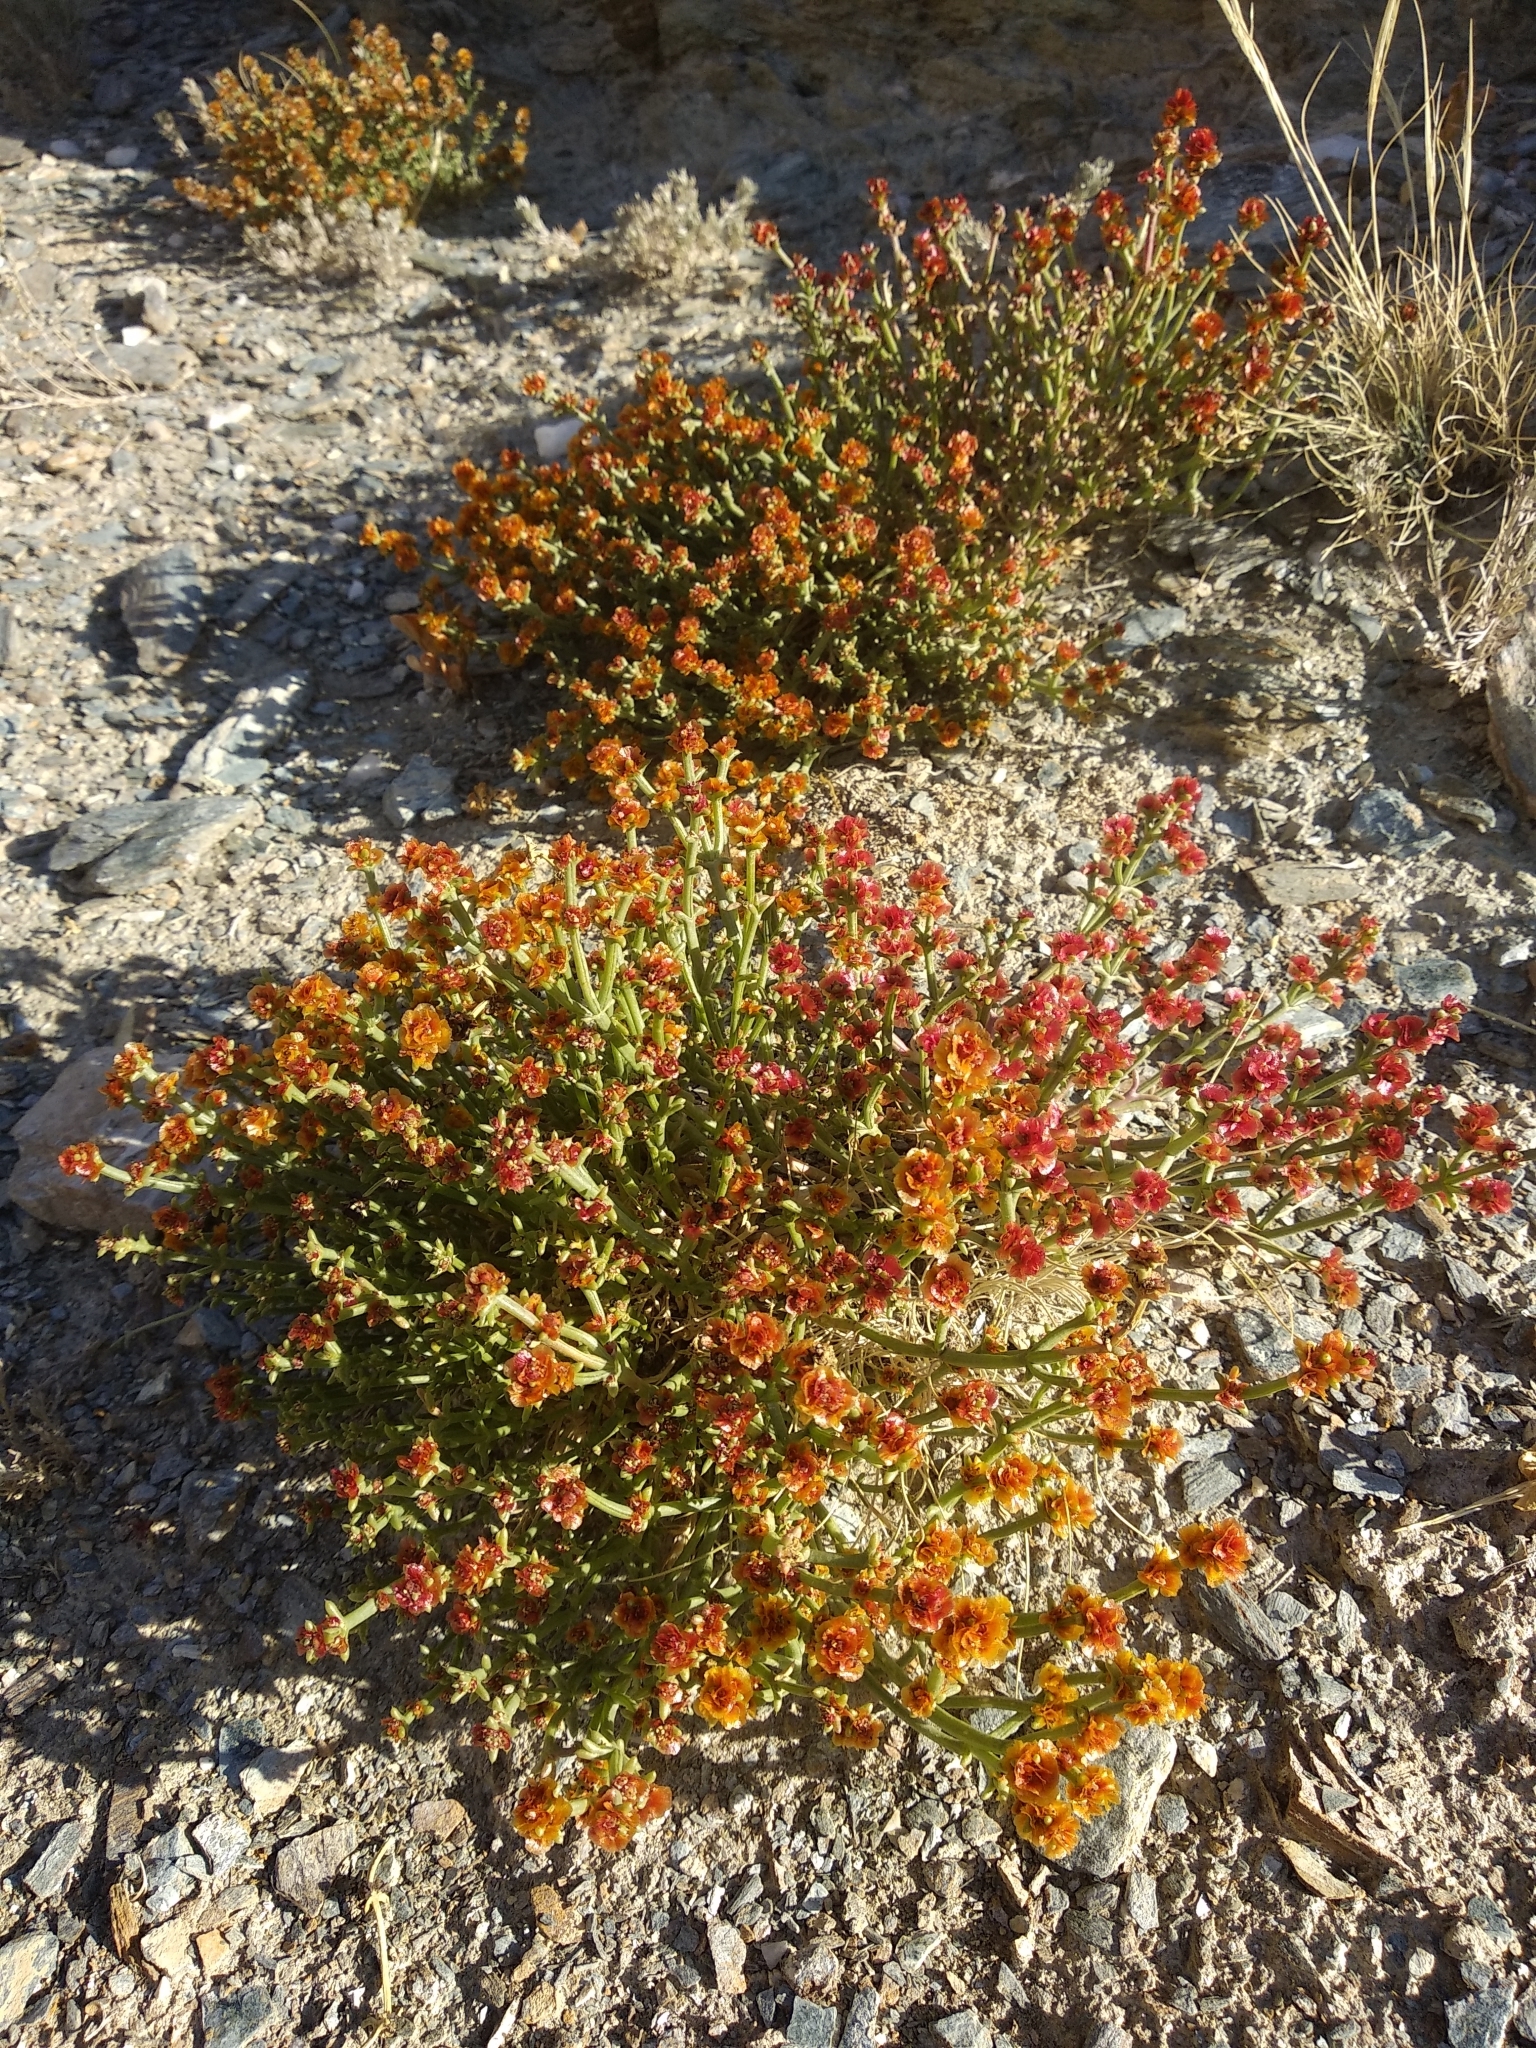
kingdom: Plantae
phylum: Tracheophyta
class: Magnoliopsida
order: Caryophyllales
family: Amaranthaceae
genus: Anabasis
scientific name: Anabasis brevifolia
